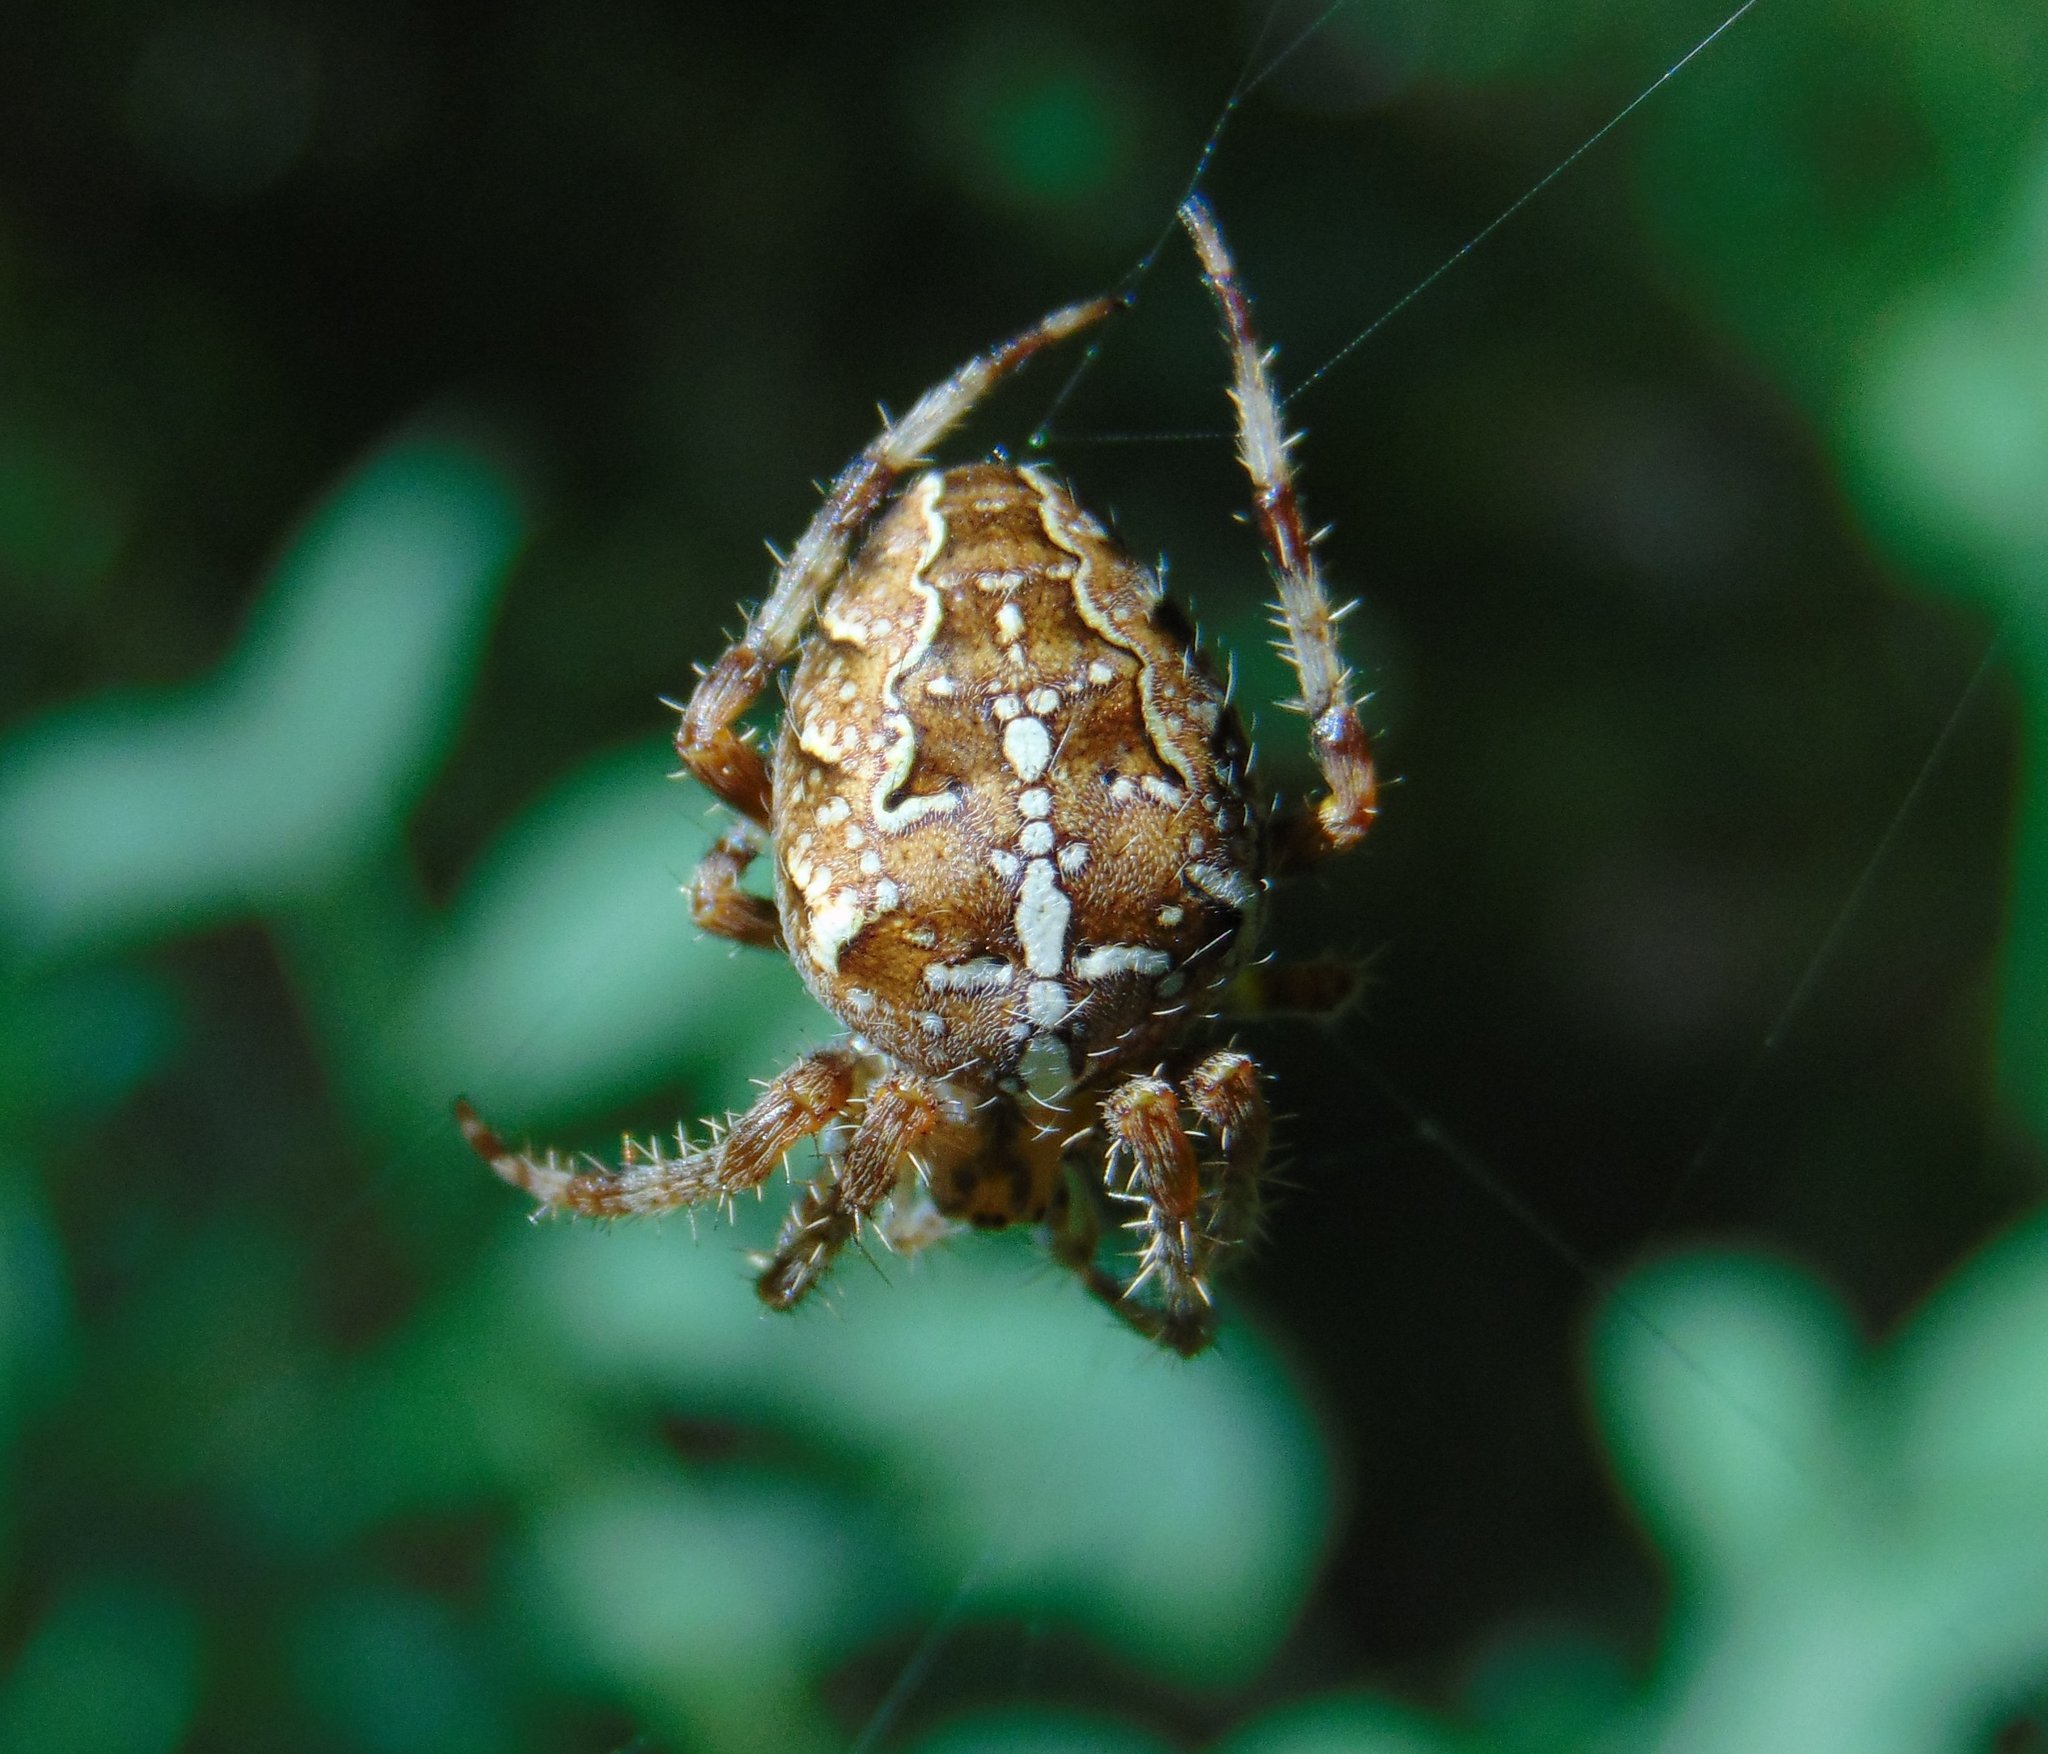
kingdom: Animalia
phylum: Arthropoda
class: Arachnida
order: Araneae
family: Araneidae
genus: Araneus
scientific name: Araneus diadematus
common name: Cross orbweaver
